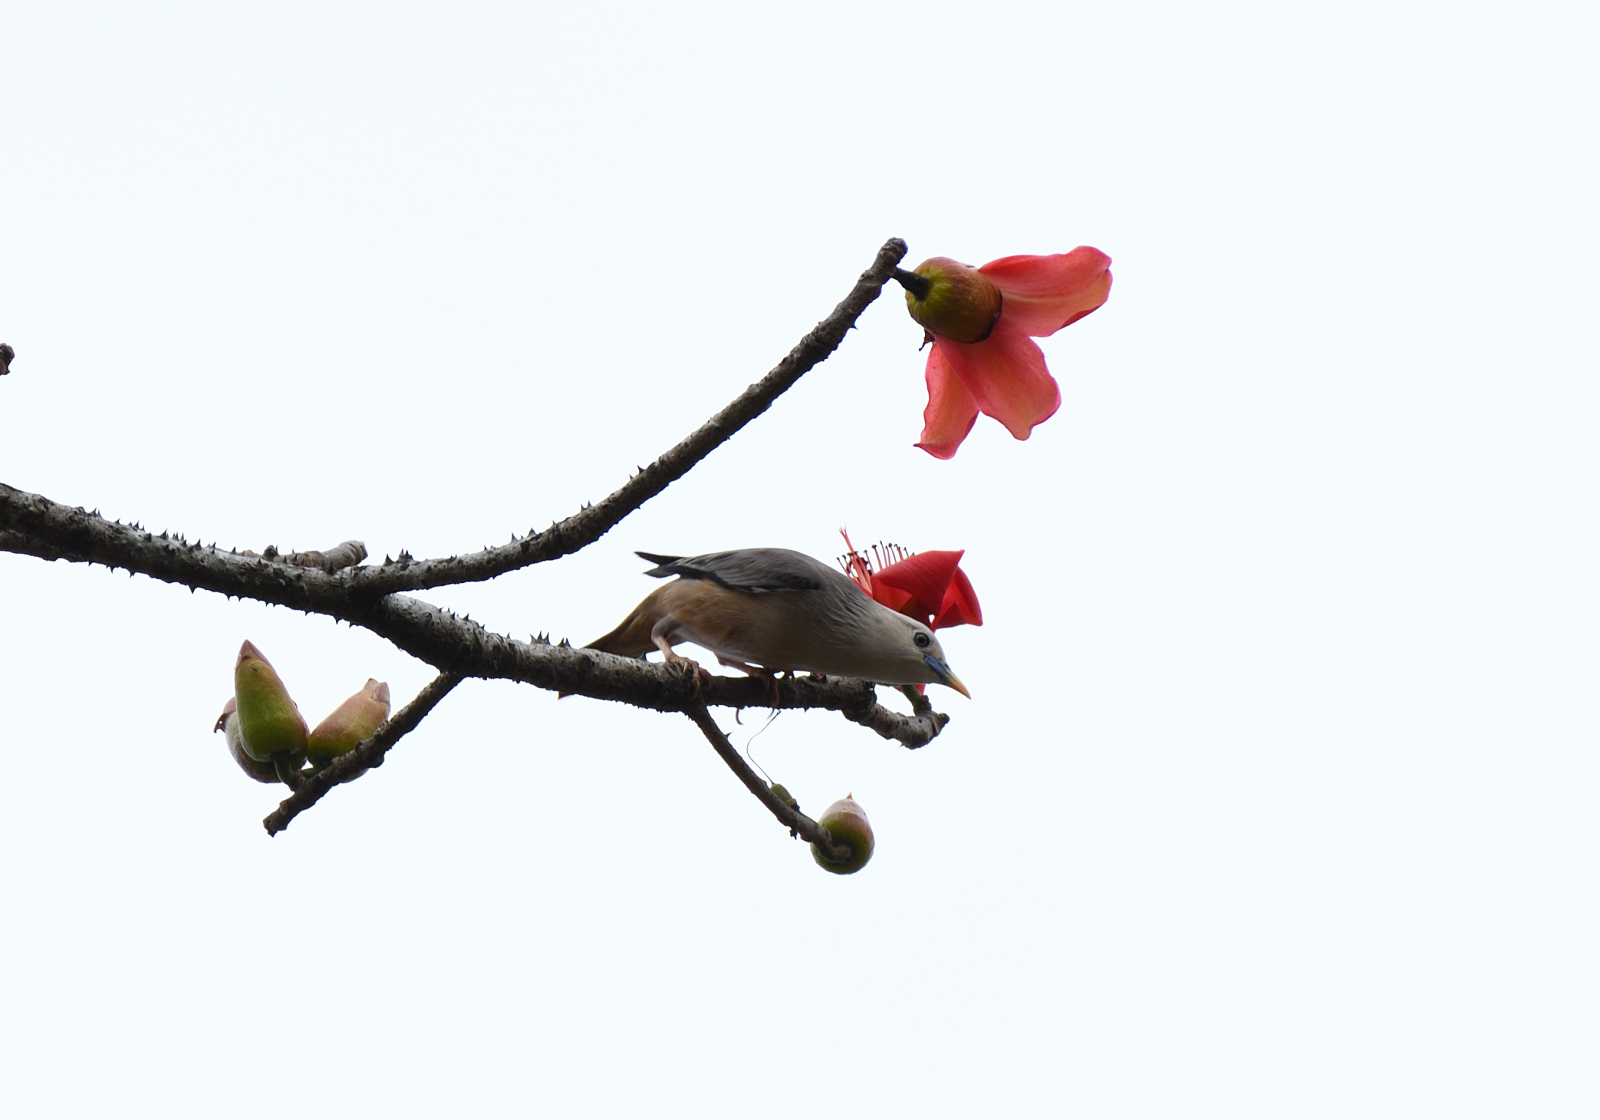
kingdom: Animalia
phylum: Chordata
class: Aves
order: Passeriformes
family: Sturnidae
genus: Sturnia
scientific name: Sturnia malabarica
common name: Chestnut-tailed starling
